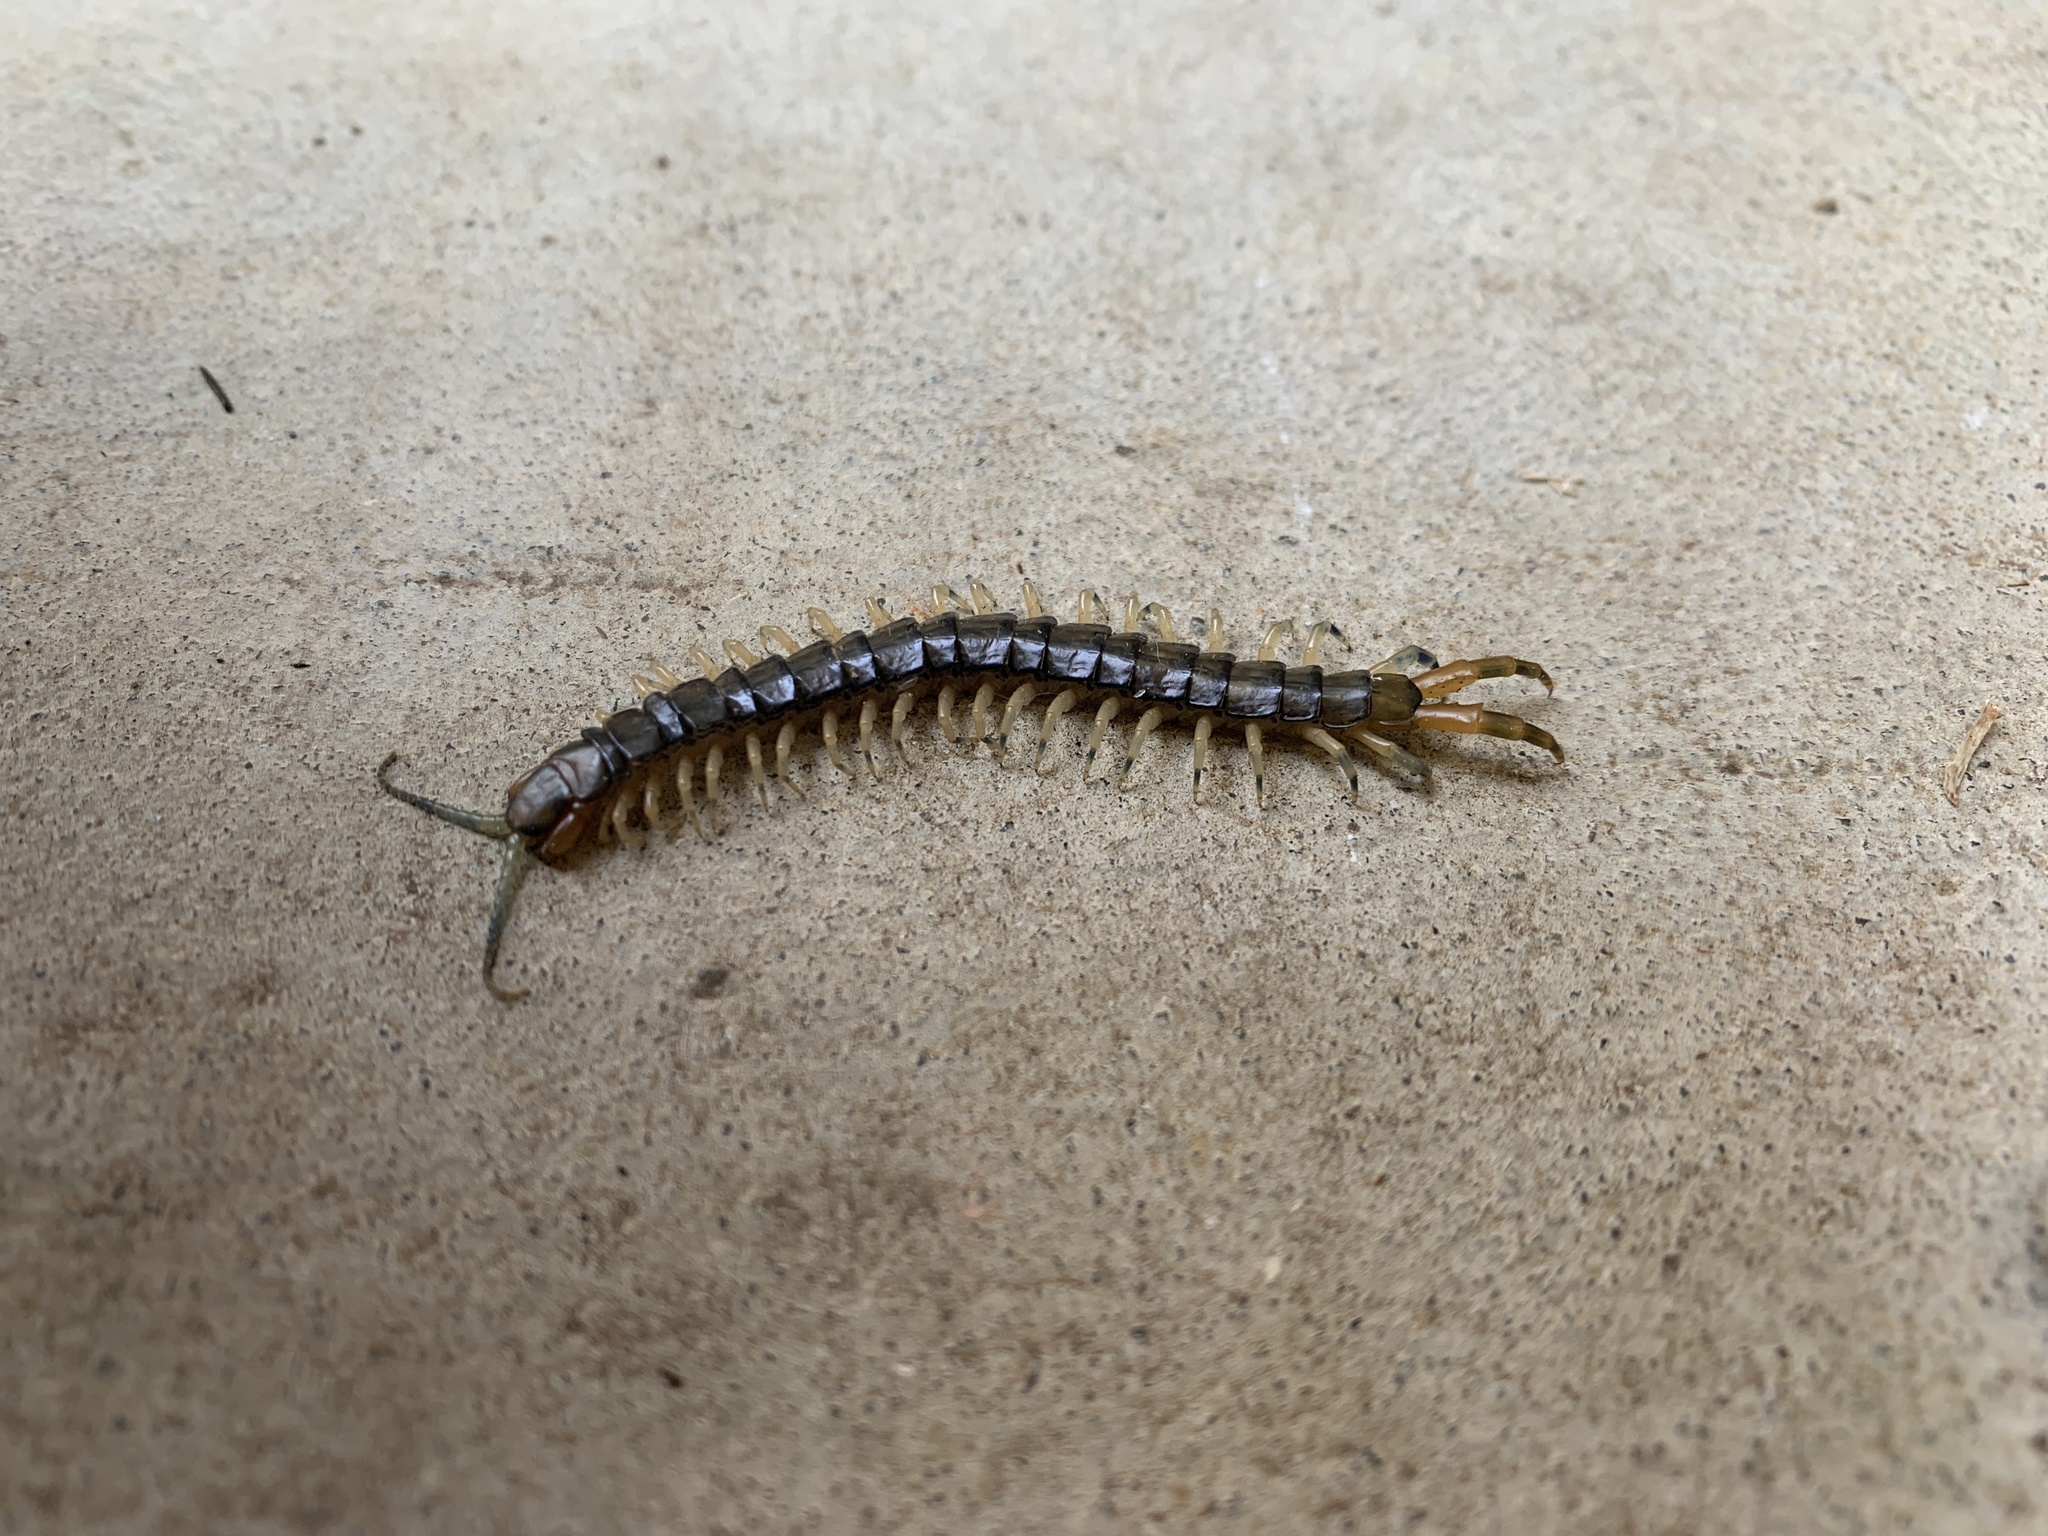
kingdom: Animalia
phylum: Arthropoda
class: Chilopoda
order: Scolopendromorpha
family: Scolopendridae
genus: Hemiscolopendra
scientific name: Hemiscolopendra marginata
